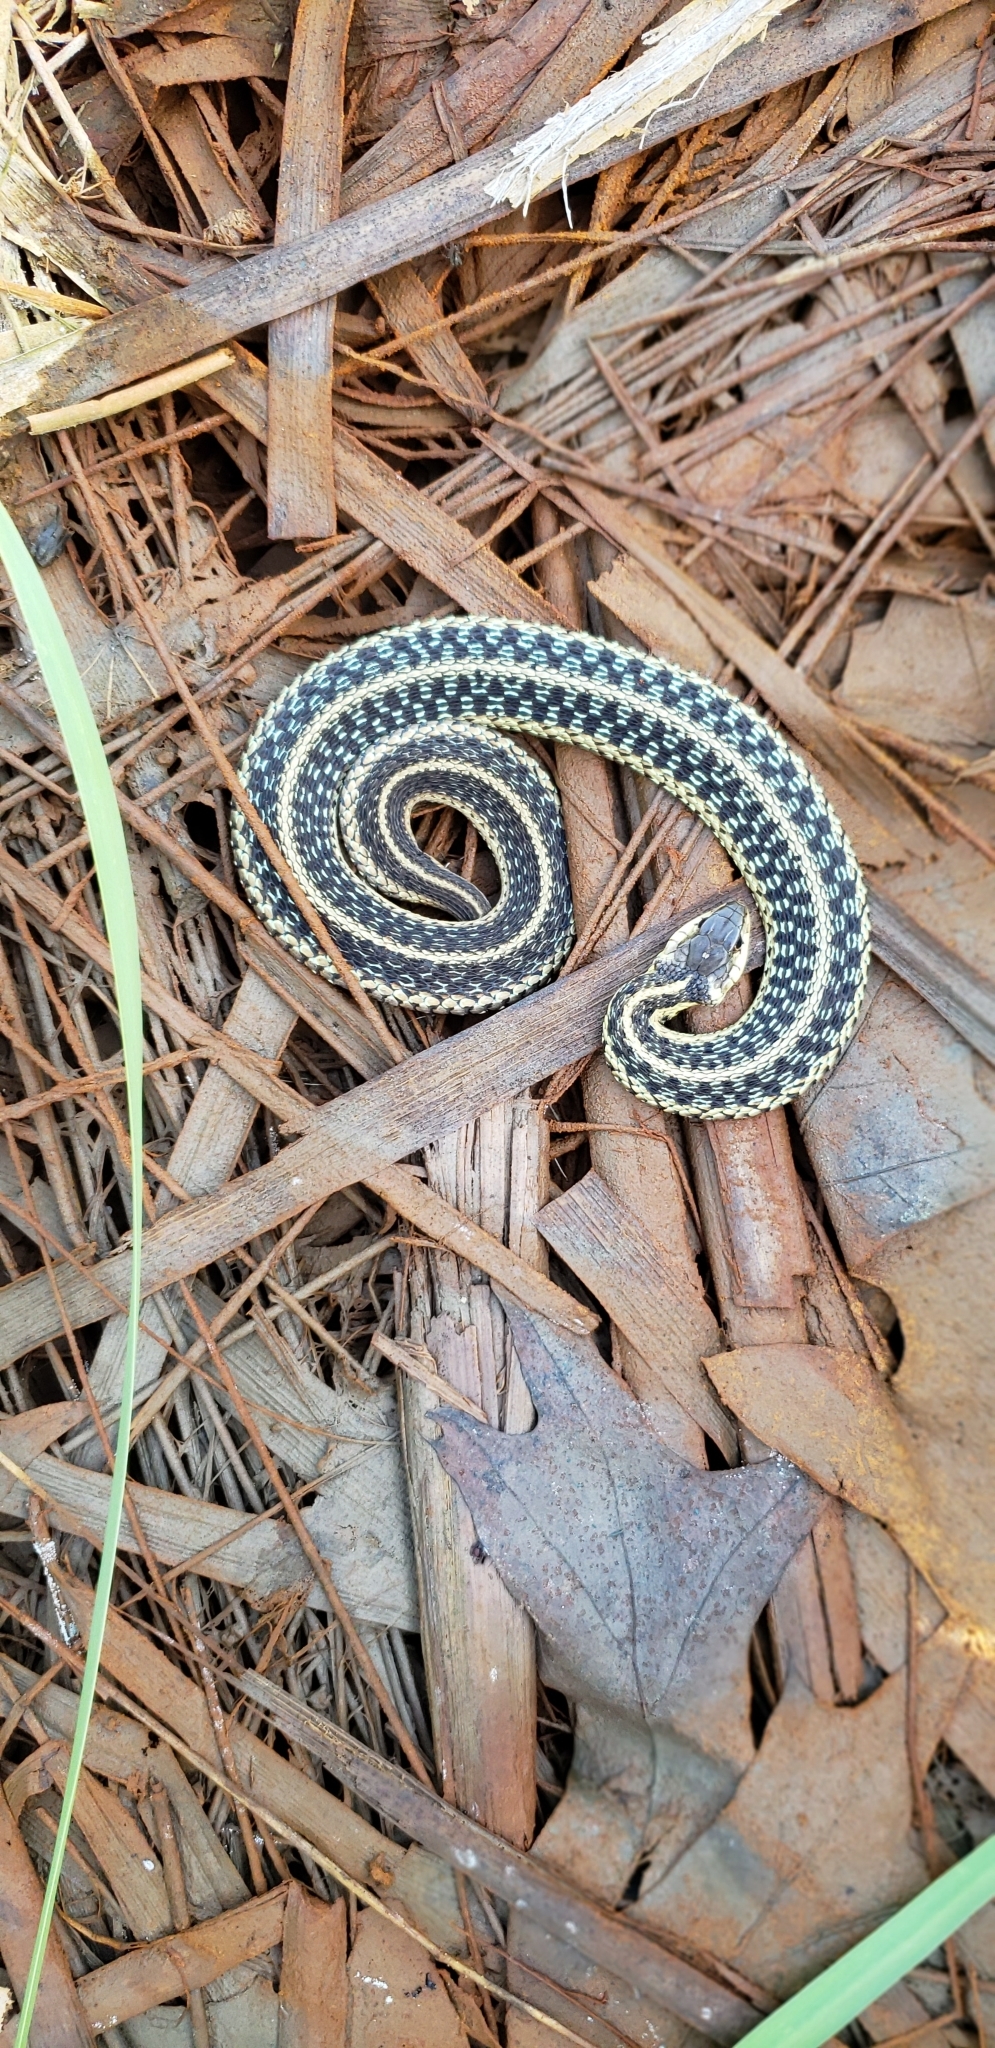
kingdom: Animalia
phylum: Chordata
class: Squamata
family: Colubridae
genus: Thamnophis
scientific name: Thamnophis sirtalis
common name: Common garter snake
